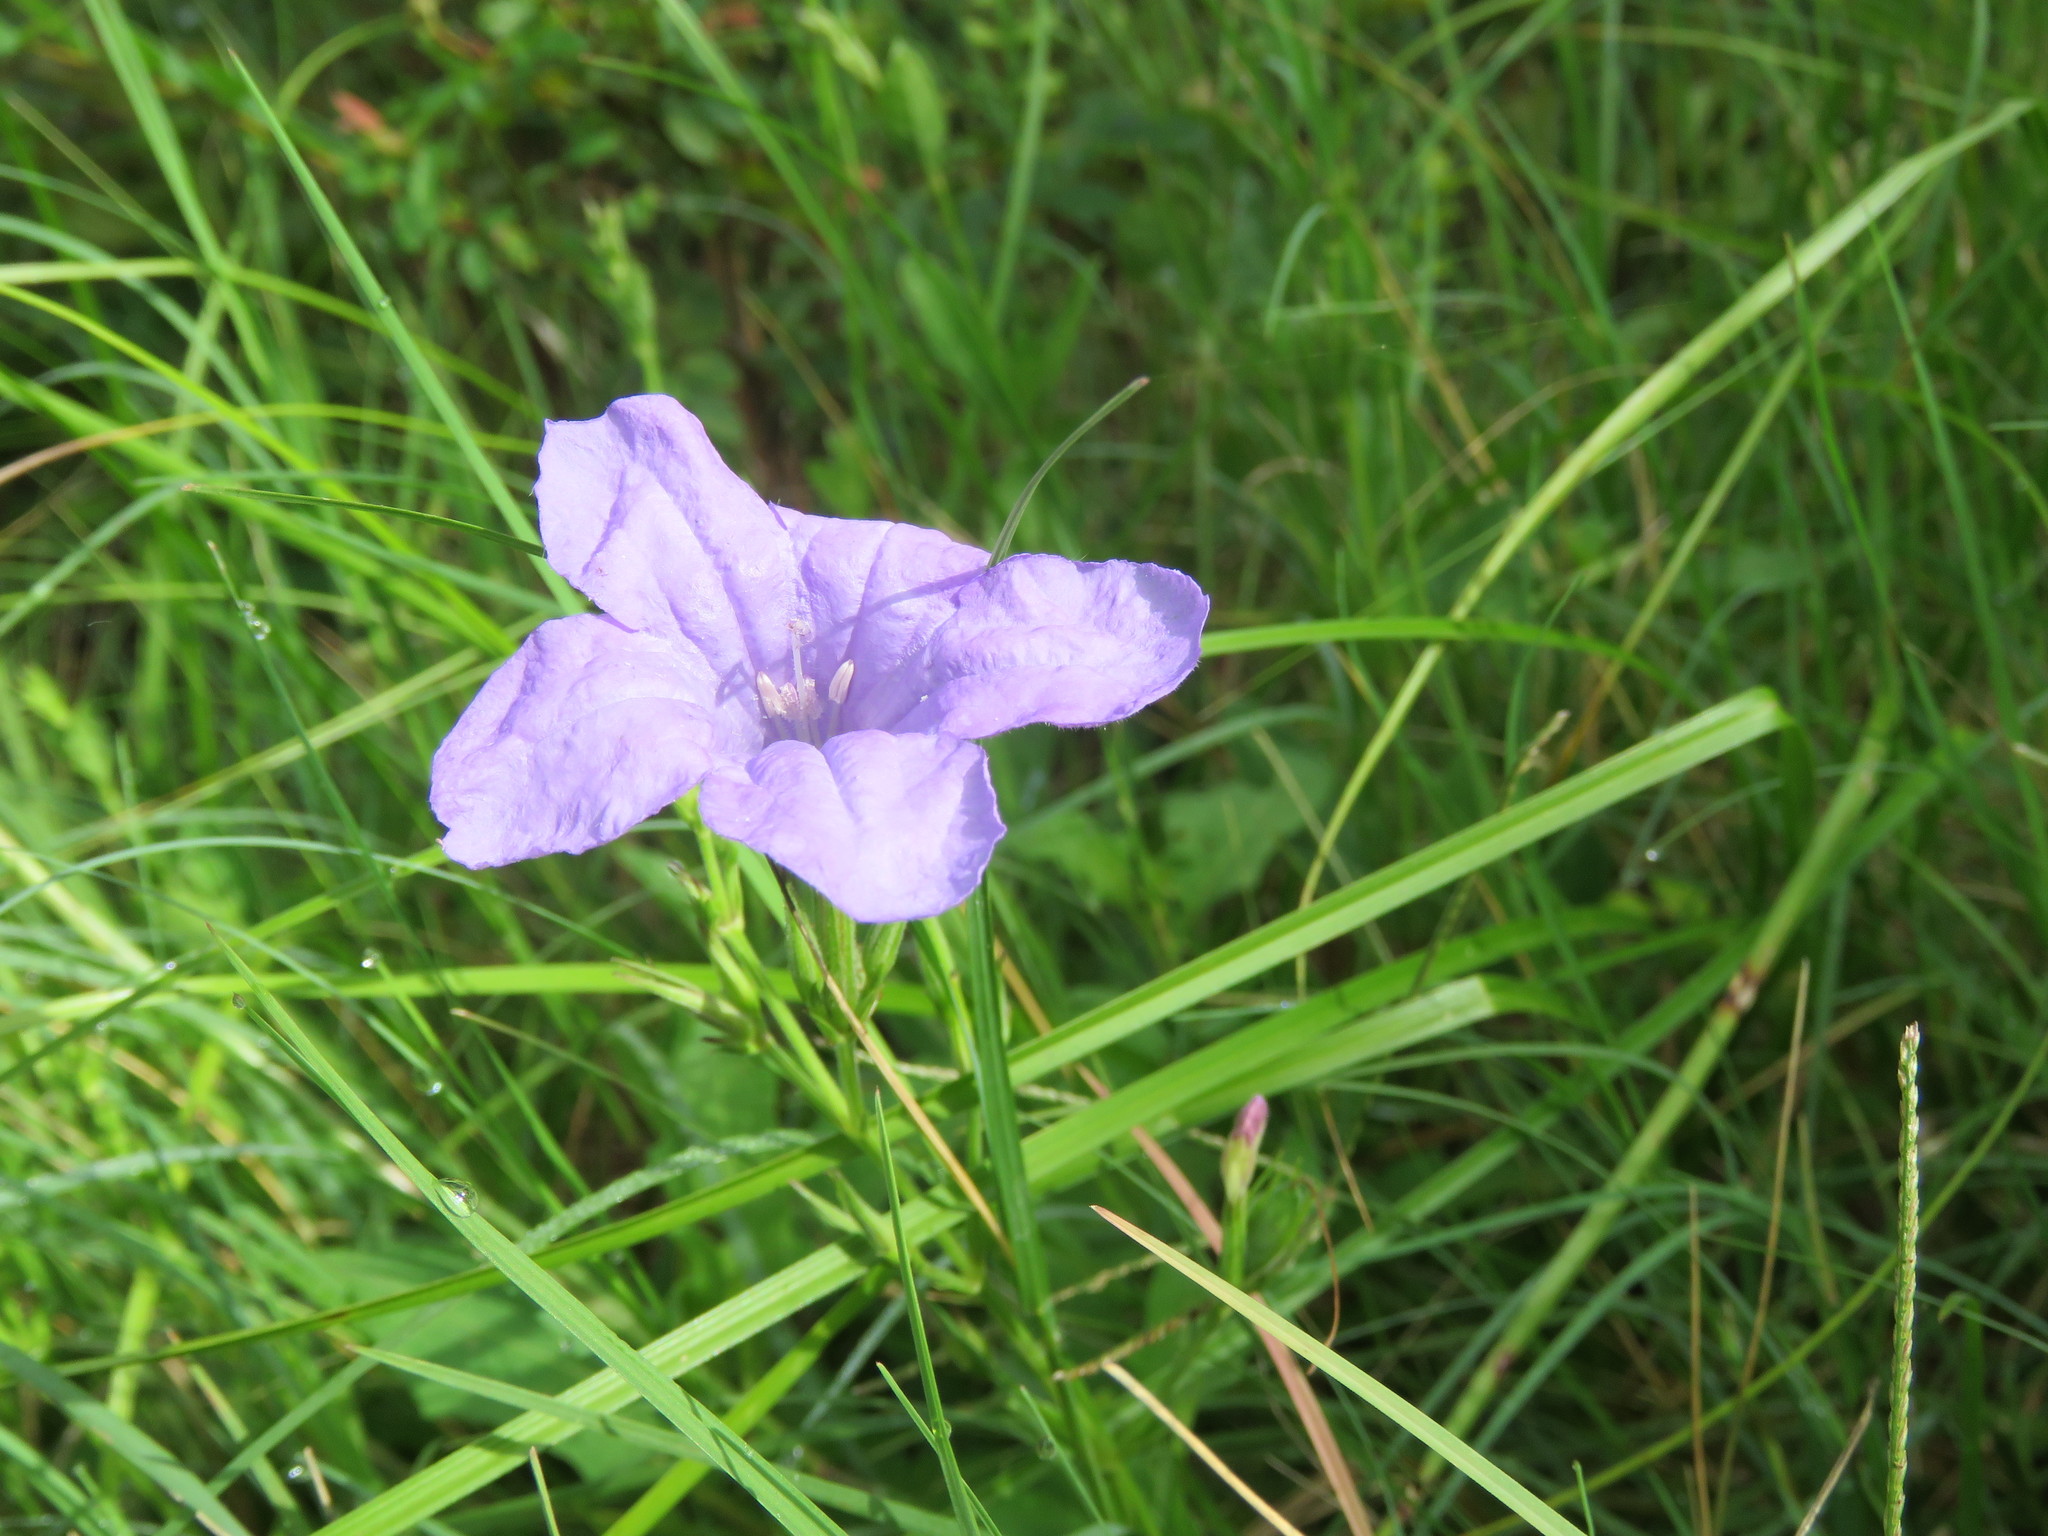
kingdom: Plantae
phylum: Tracheophyta
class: Magnoliopsida
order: Lamiales
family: Acanthaceae
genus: Ruellia
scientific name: Ruellia ciliatiflora
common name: Hairyflower wild petunia
